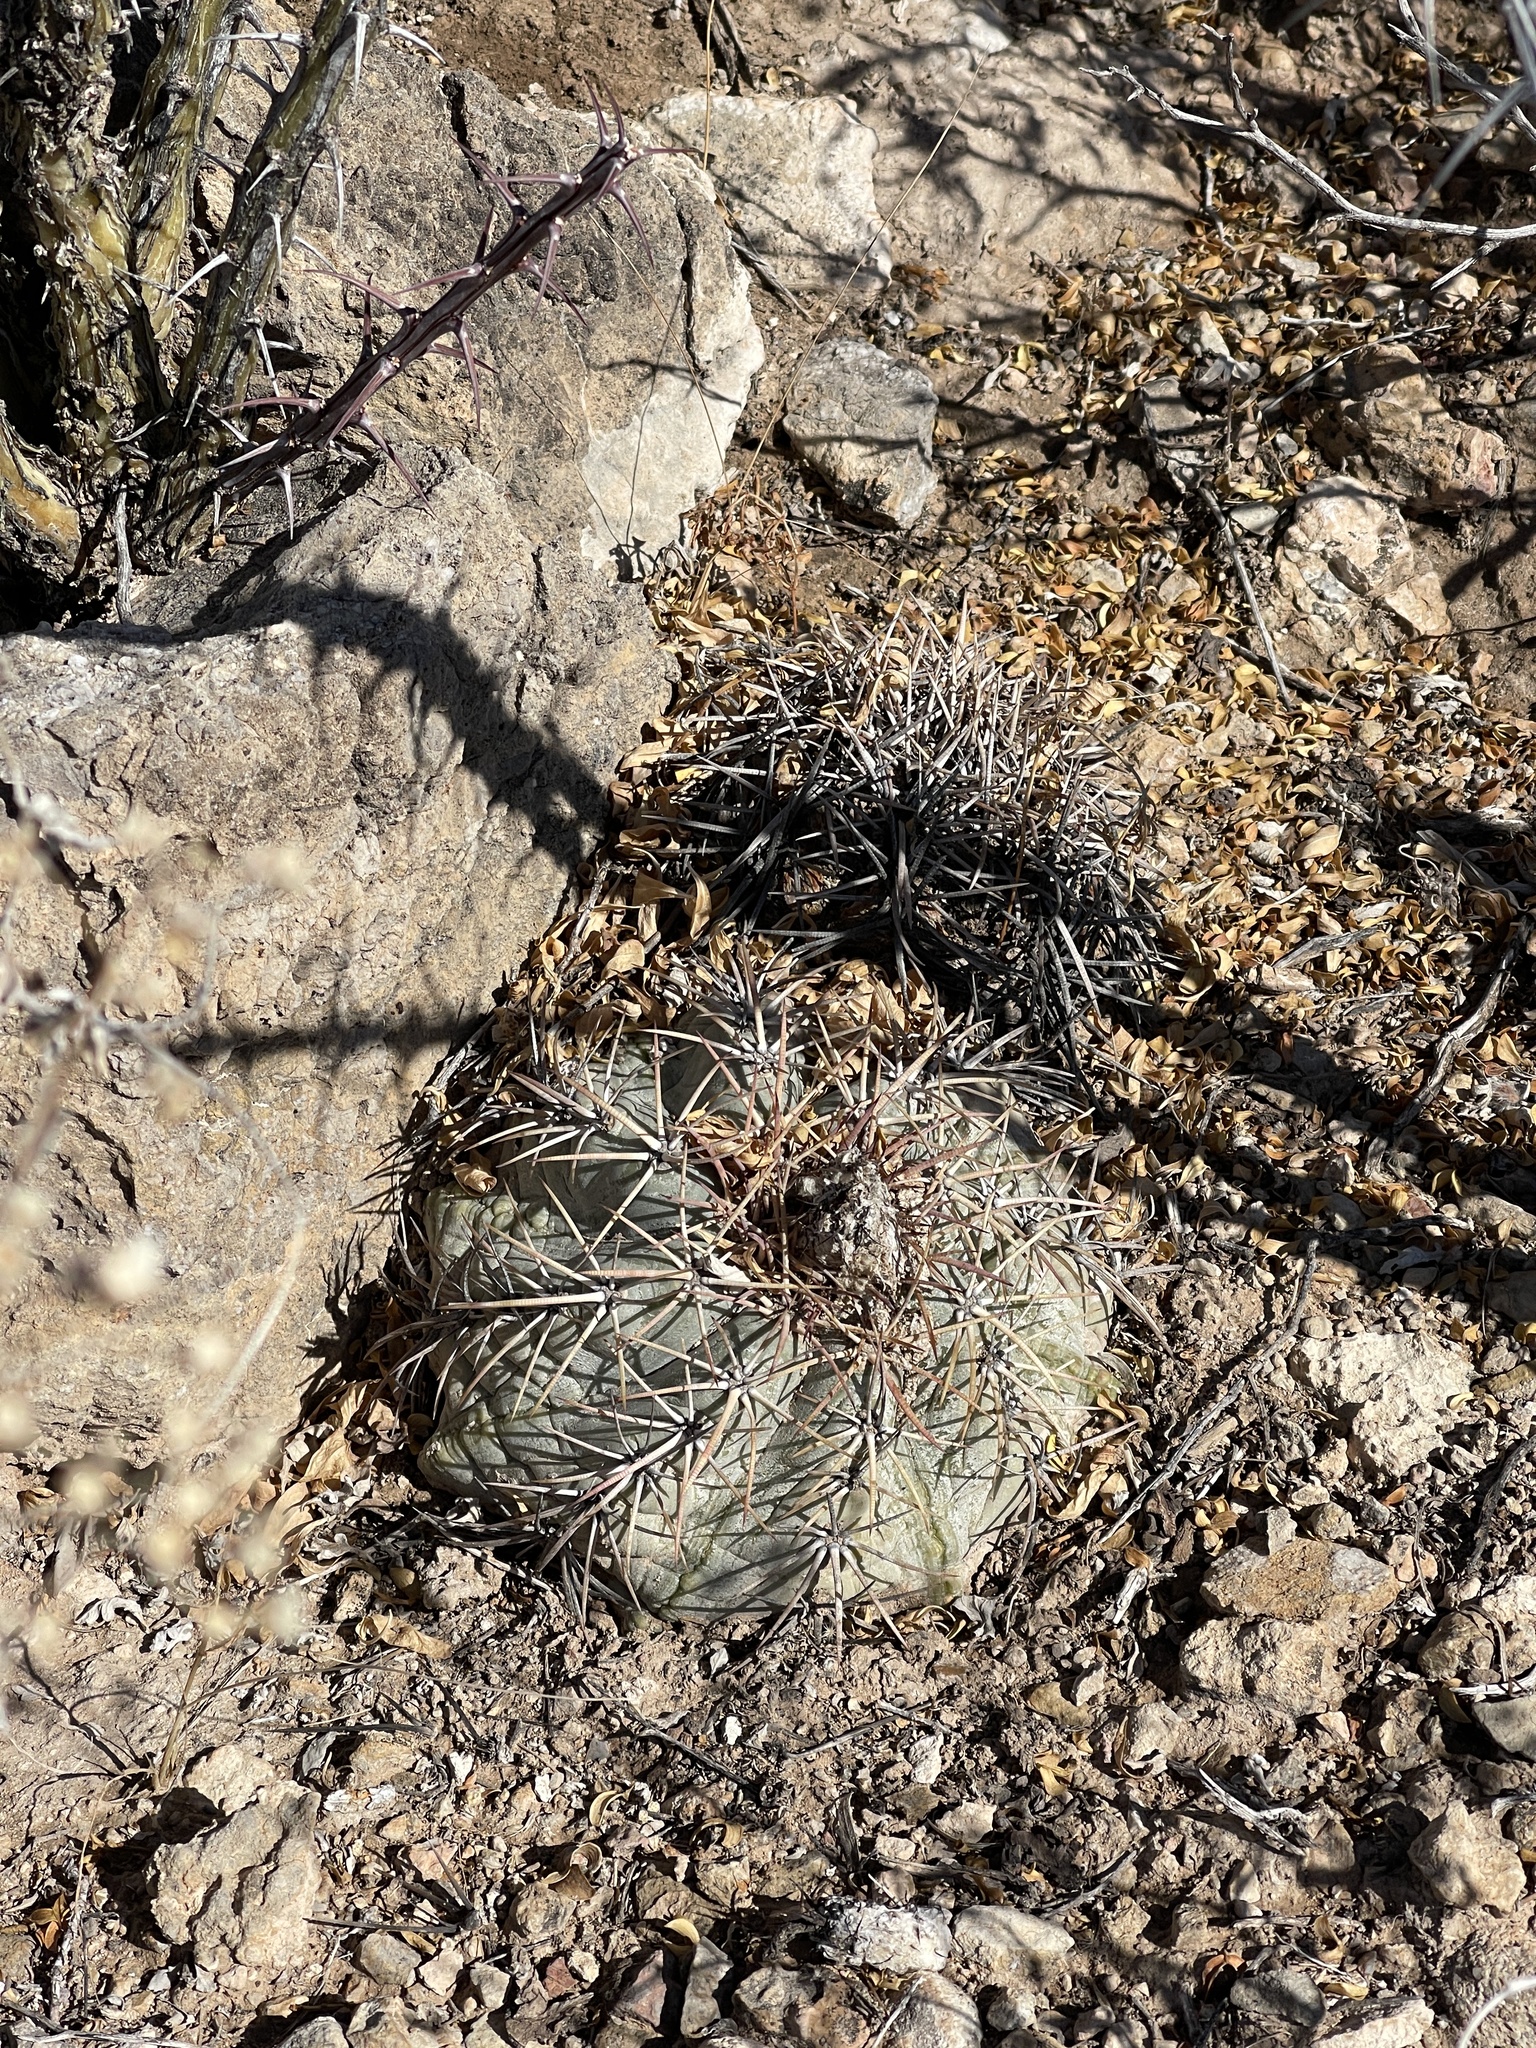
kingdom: Plantae
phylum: Tracheophyta
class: Magnoliopsida
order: Caryophyllales
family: Cactaceae
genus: Echinocactus
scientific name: Echinocactus horizonthalonius
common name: Devilshead
